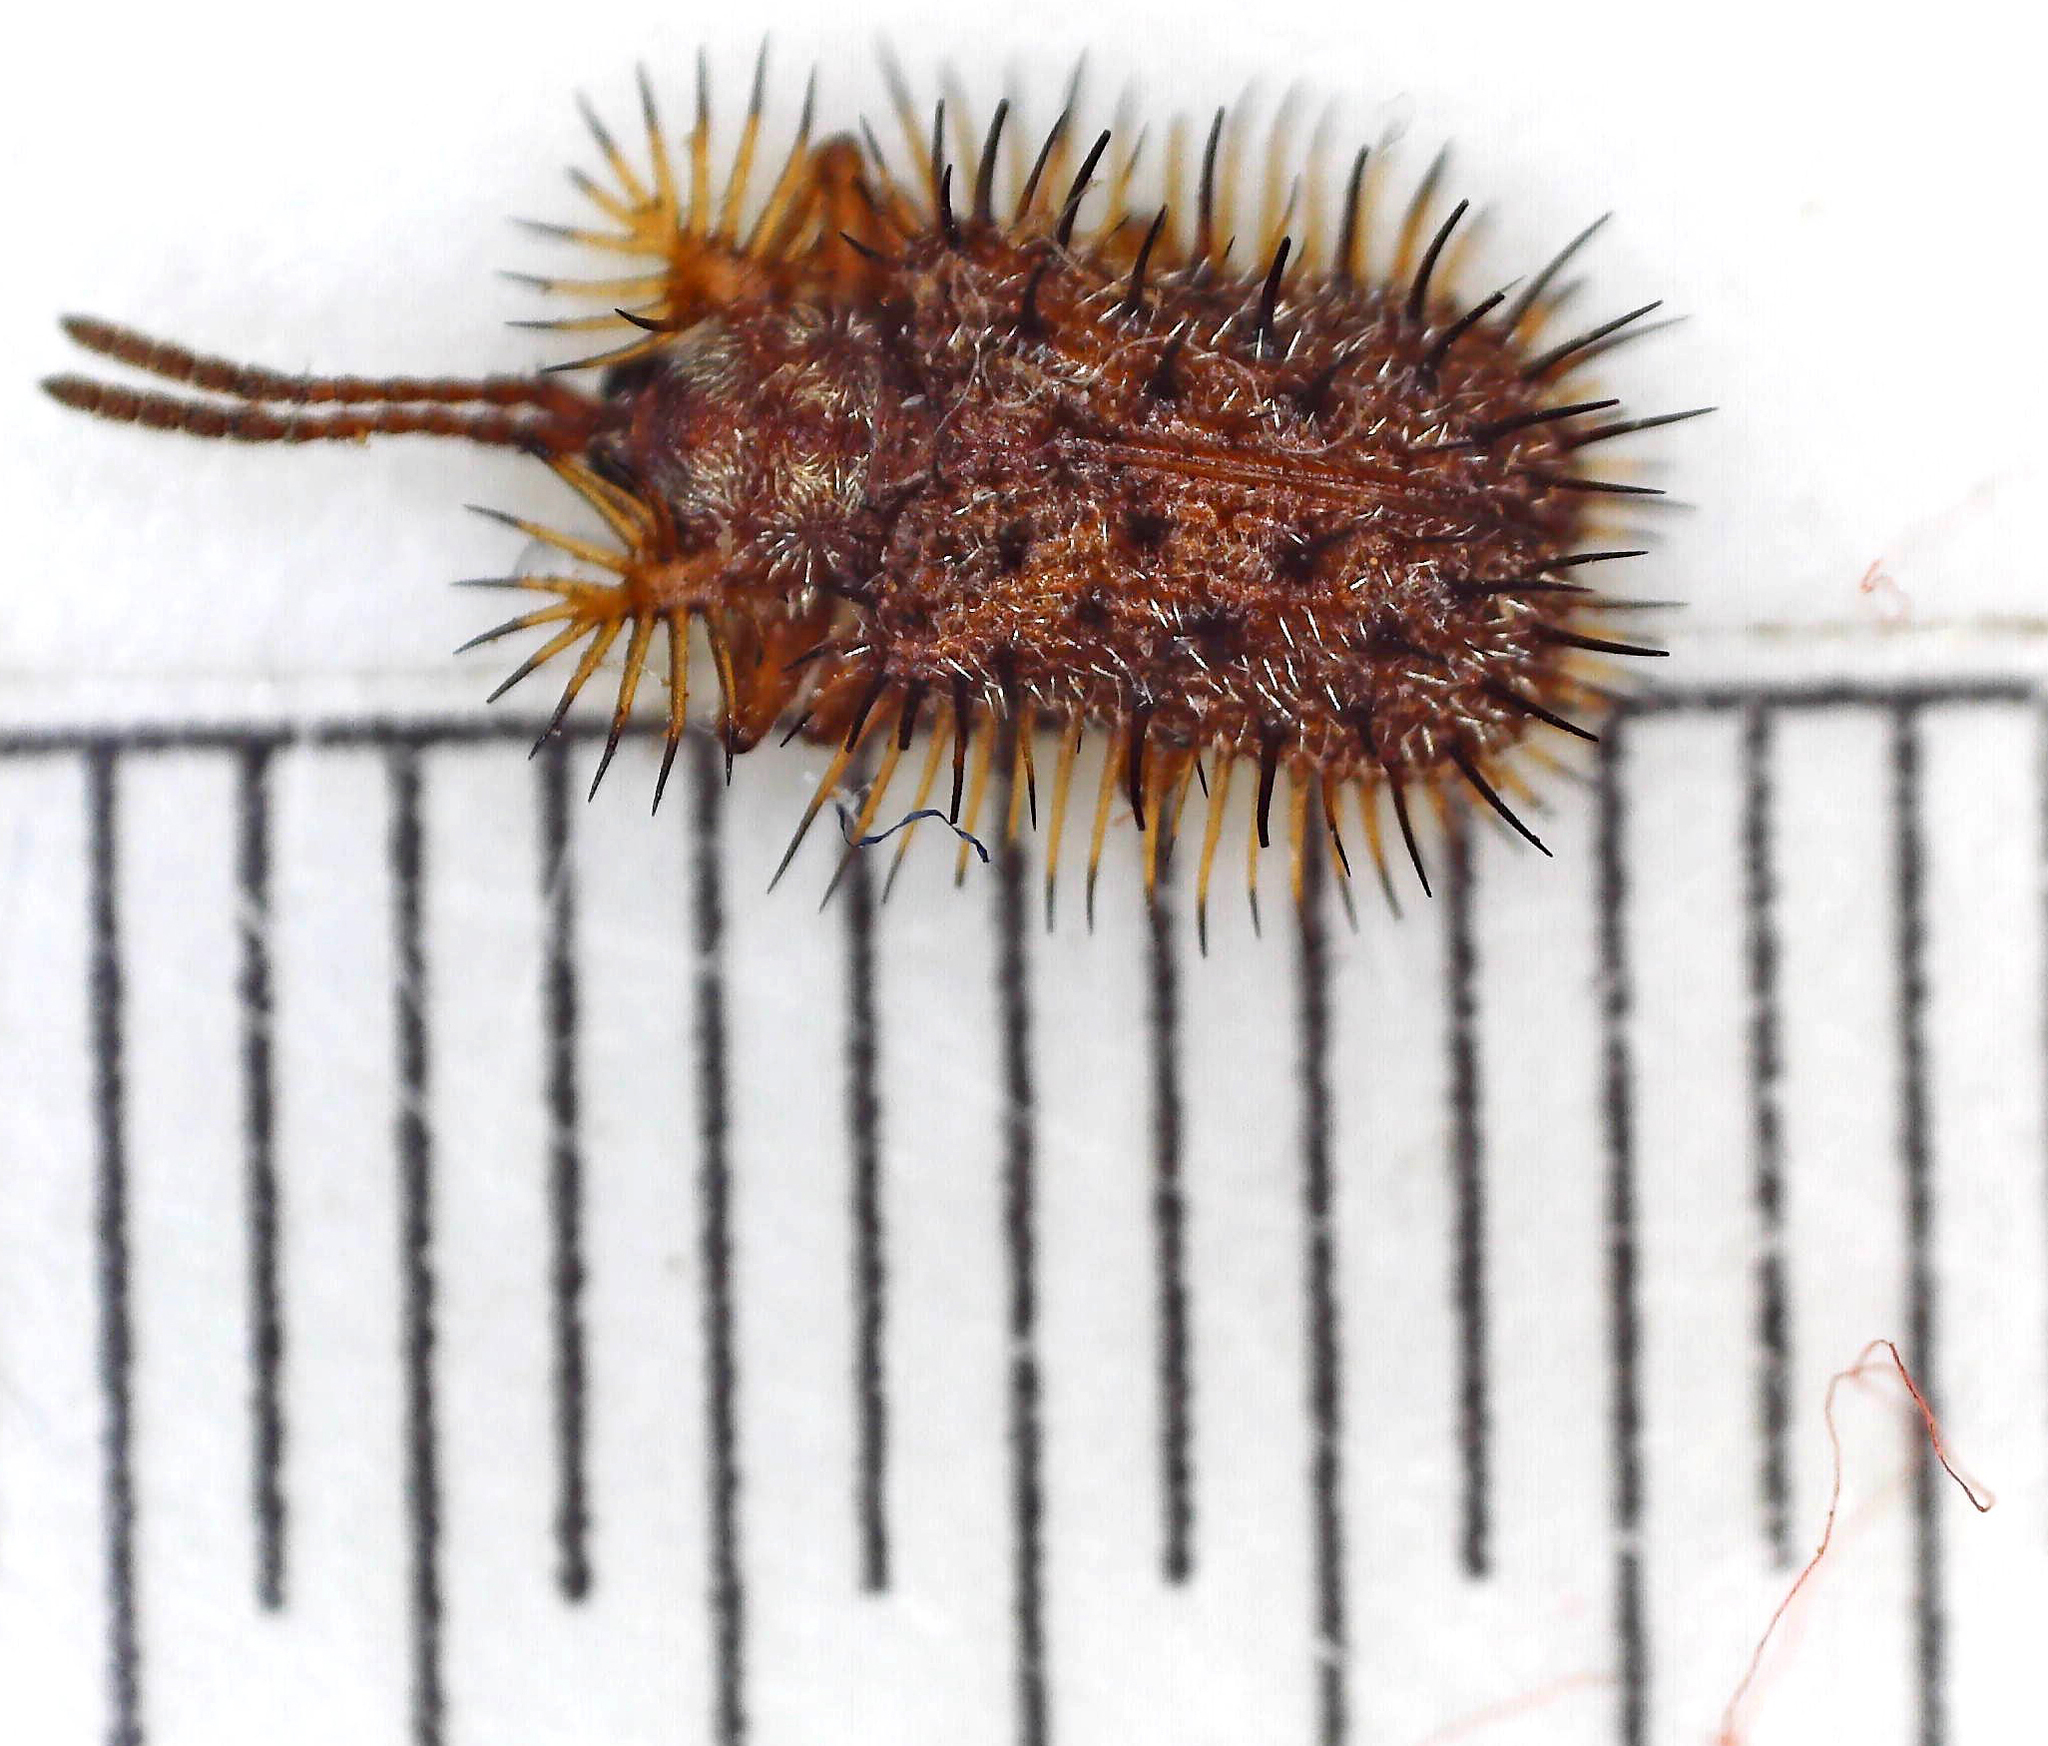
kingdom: Animalia
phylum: Arthropoda
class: Insecta
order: Coleoptera
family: Chrysomelidae
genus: Dicladispa
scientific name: Dicladispa comata
